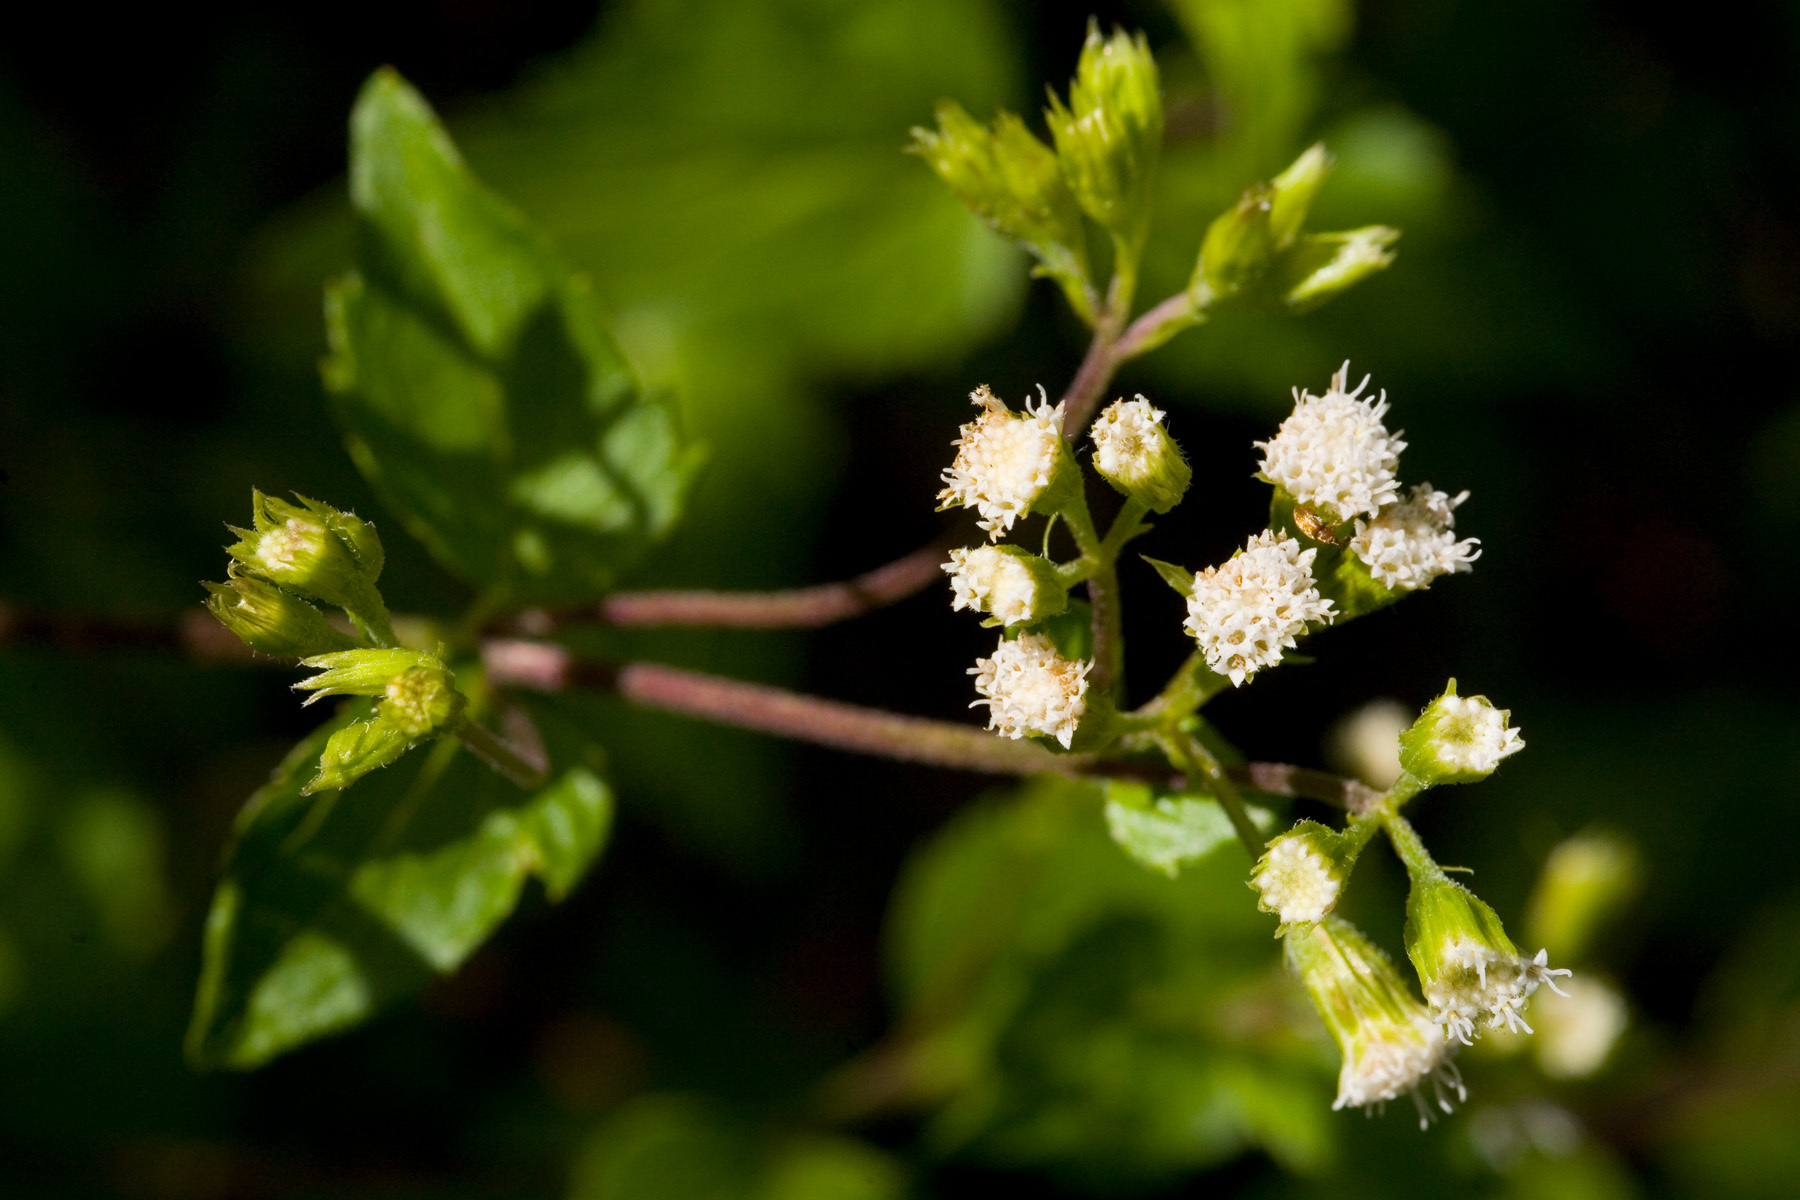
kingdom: Plantae
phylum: Tracheophyta
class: Magnoliopsida
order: Asterales
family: Asteraceae
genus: Ageratina
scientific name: Ageratina rothrockii
